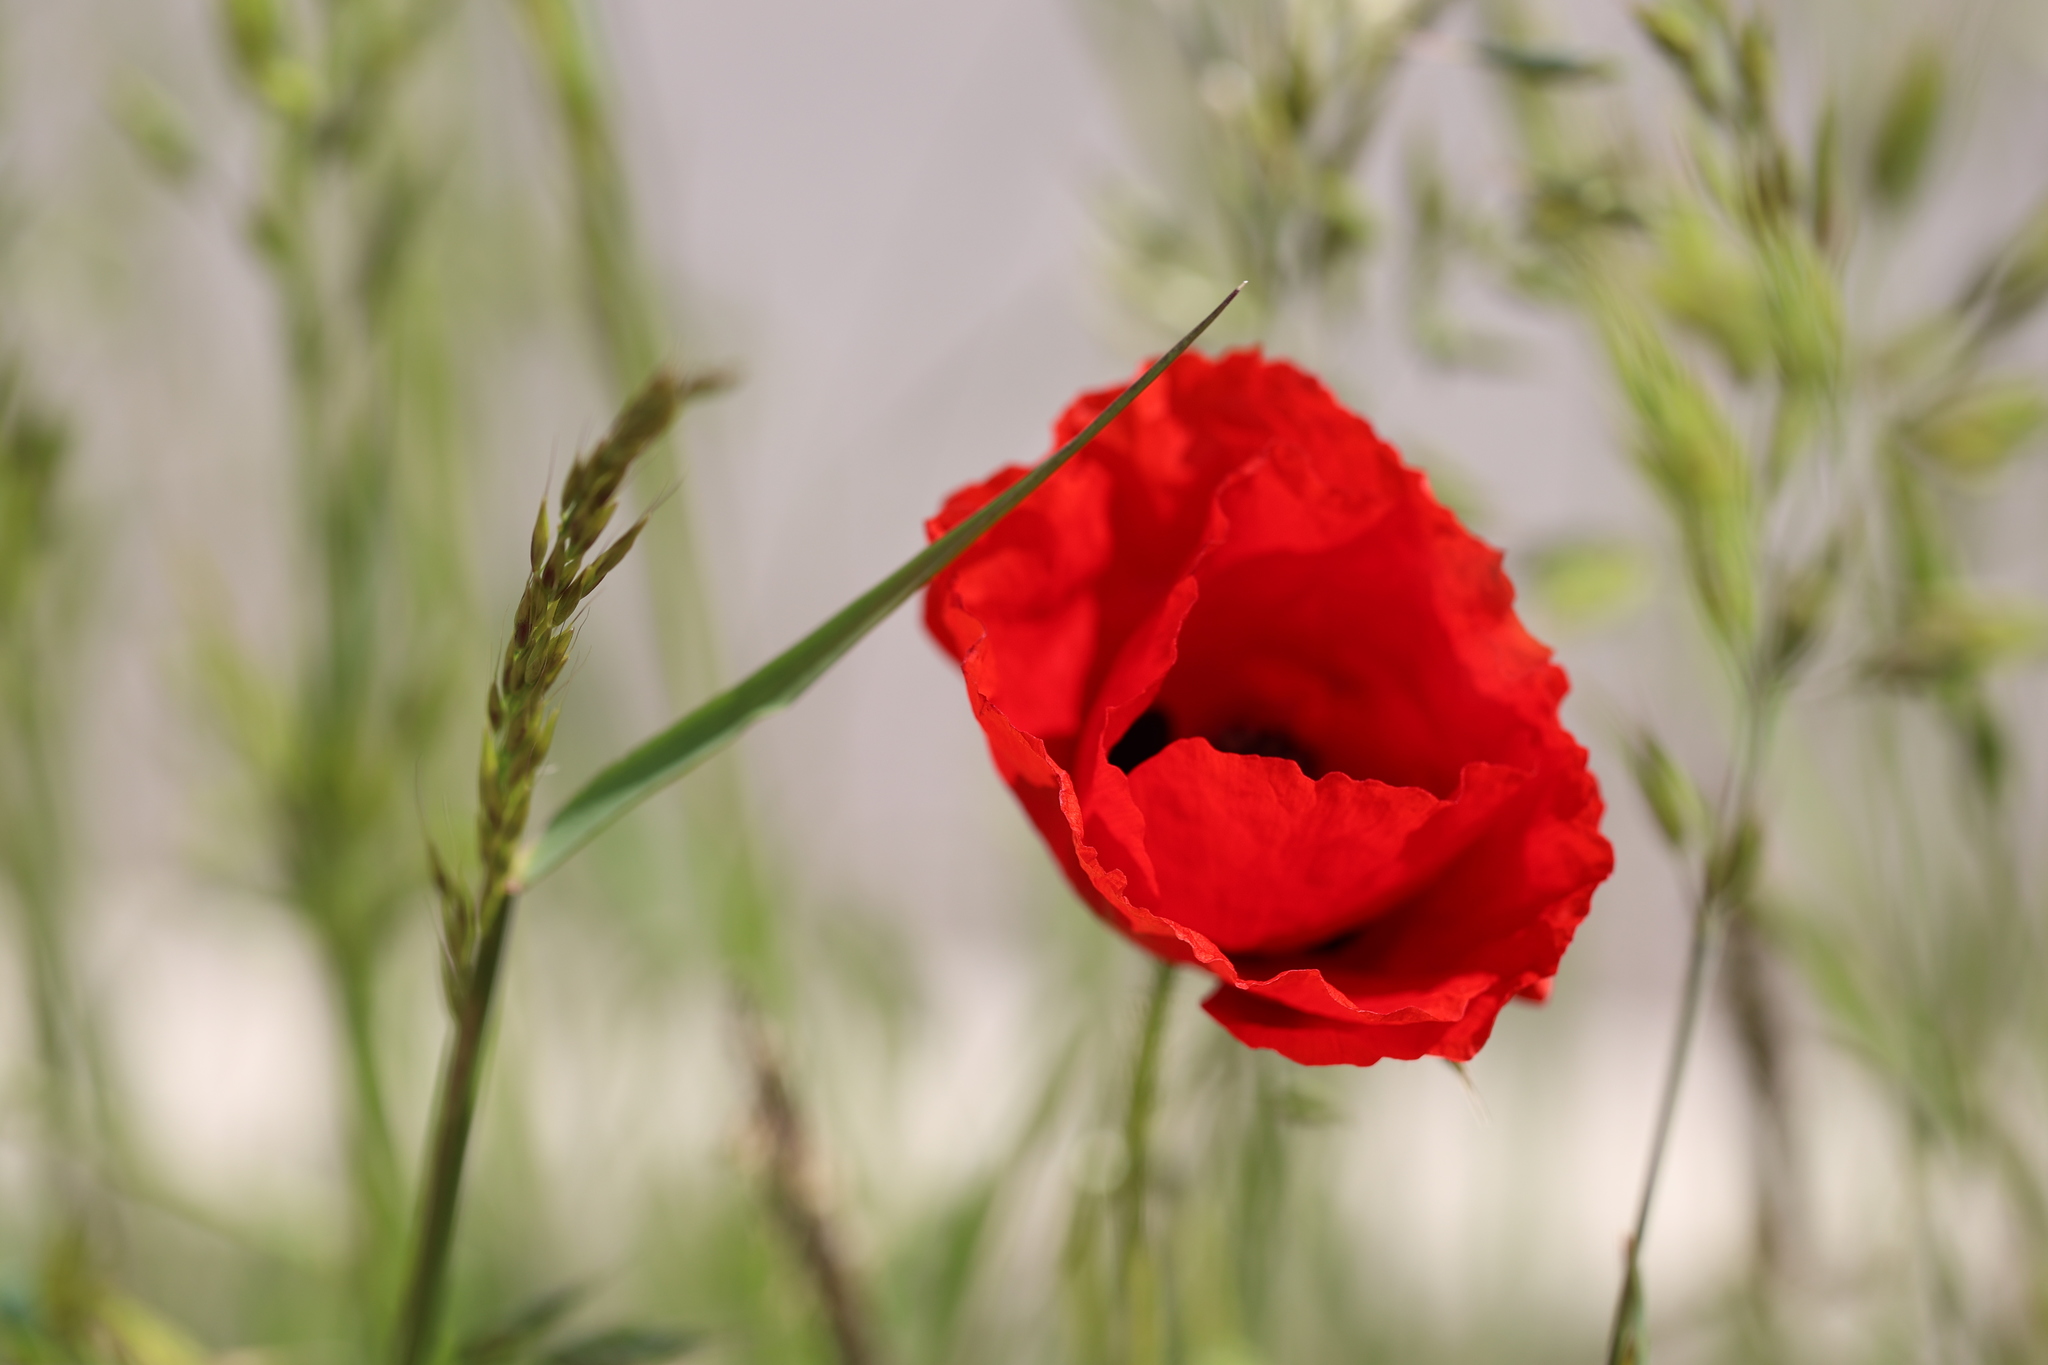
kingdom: Plantae
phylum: Tracheophyta
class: Magnoliopsida
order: Ranunculales
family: Papaveraceae
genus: Papaver
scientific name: Papaver rhoeas
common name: Corn poppy
